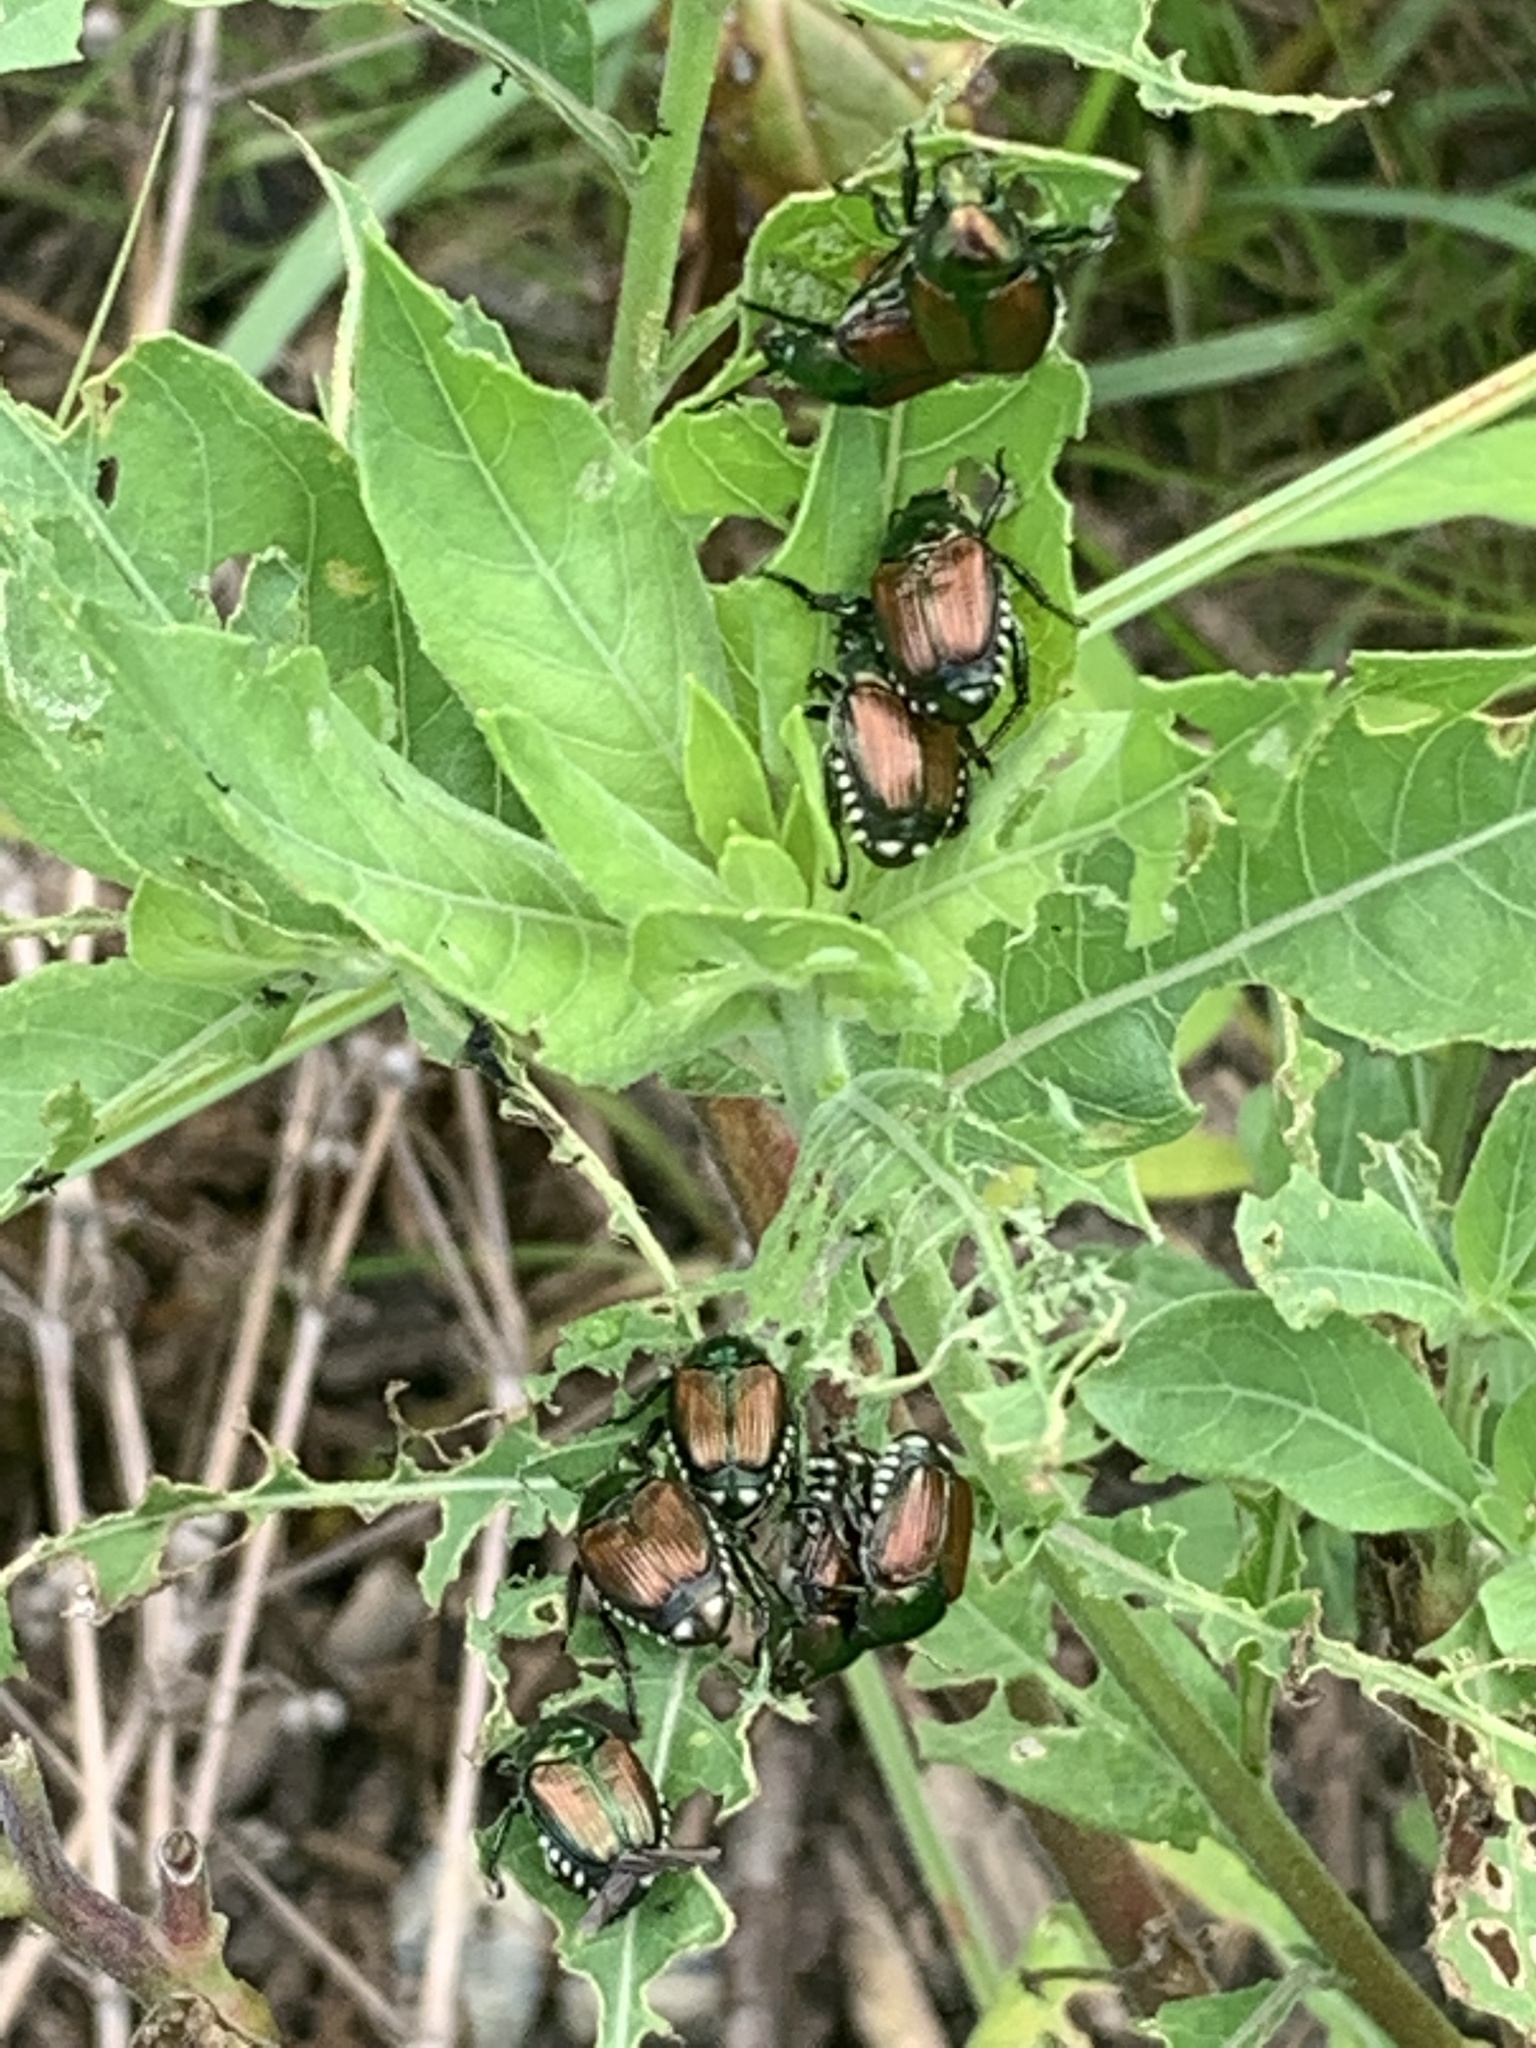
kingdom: Animalia
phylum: Arthropoda
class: Insecta
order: Coleoptera
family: Scarabaeidae
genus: Popillia
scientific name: Popillia japonica
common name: Japanese beetle
